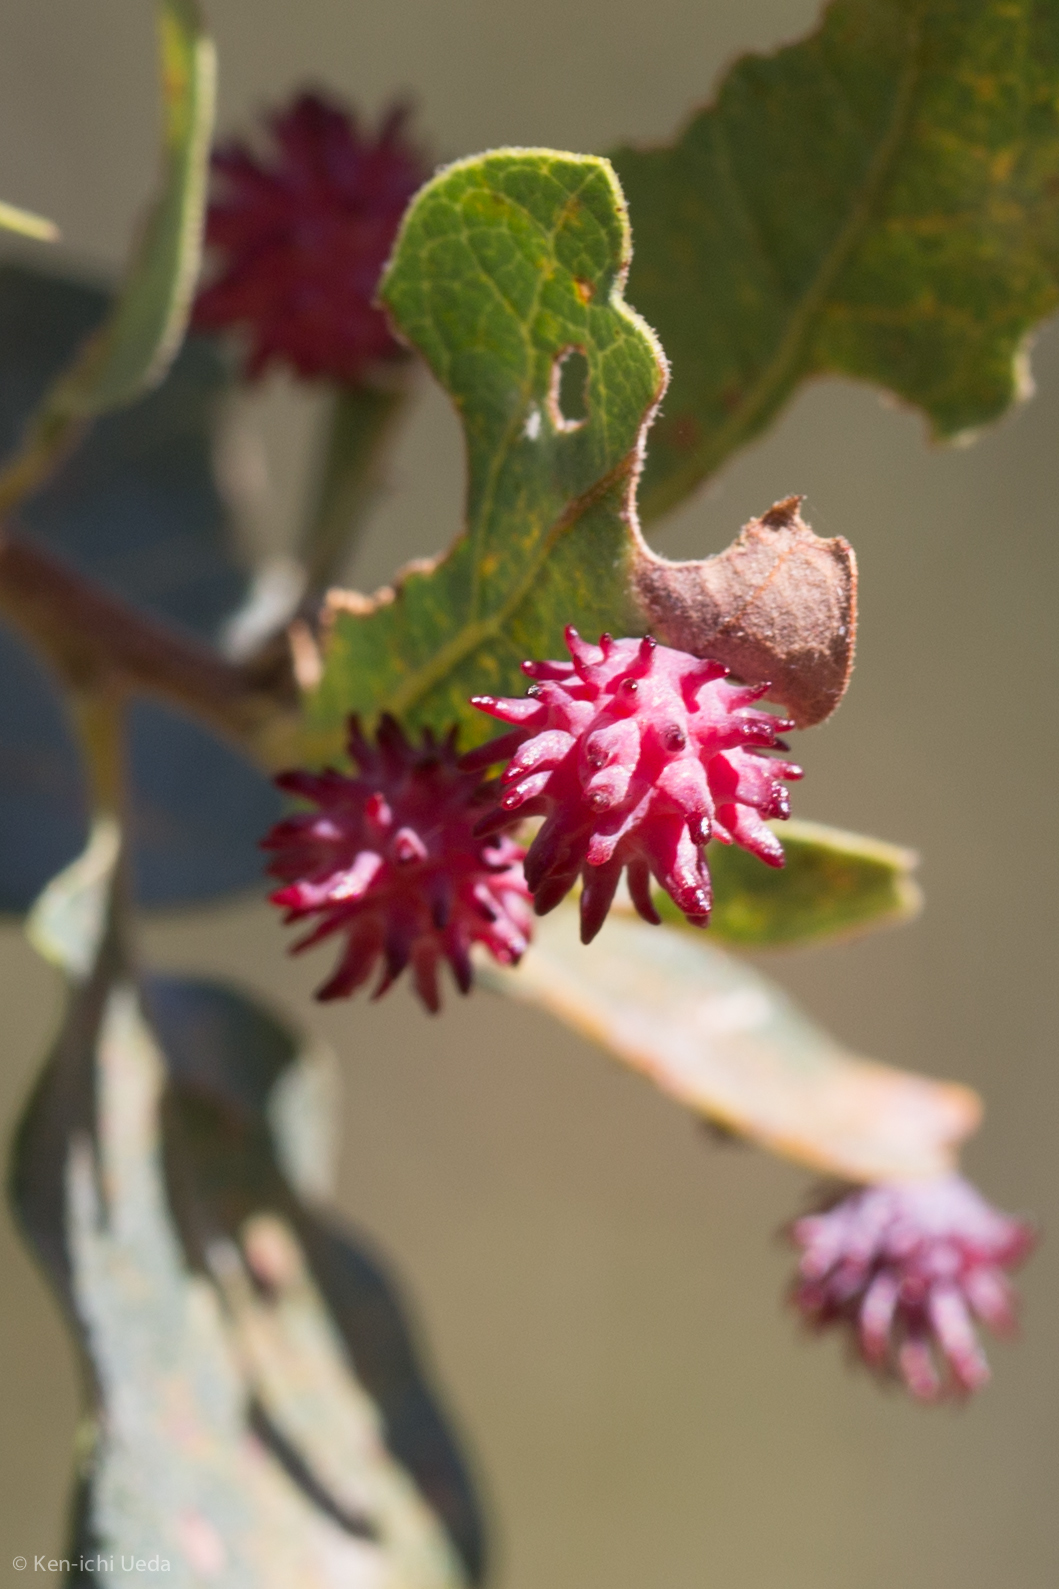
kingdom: Animalia
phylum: Arthropoda
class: Insecta
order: Hymenoptera
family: Cynipidae
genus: Cynips
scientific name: Cynips
